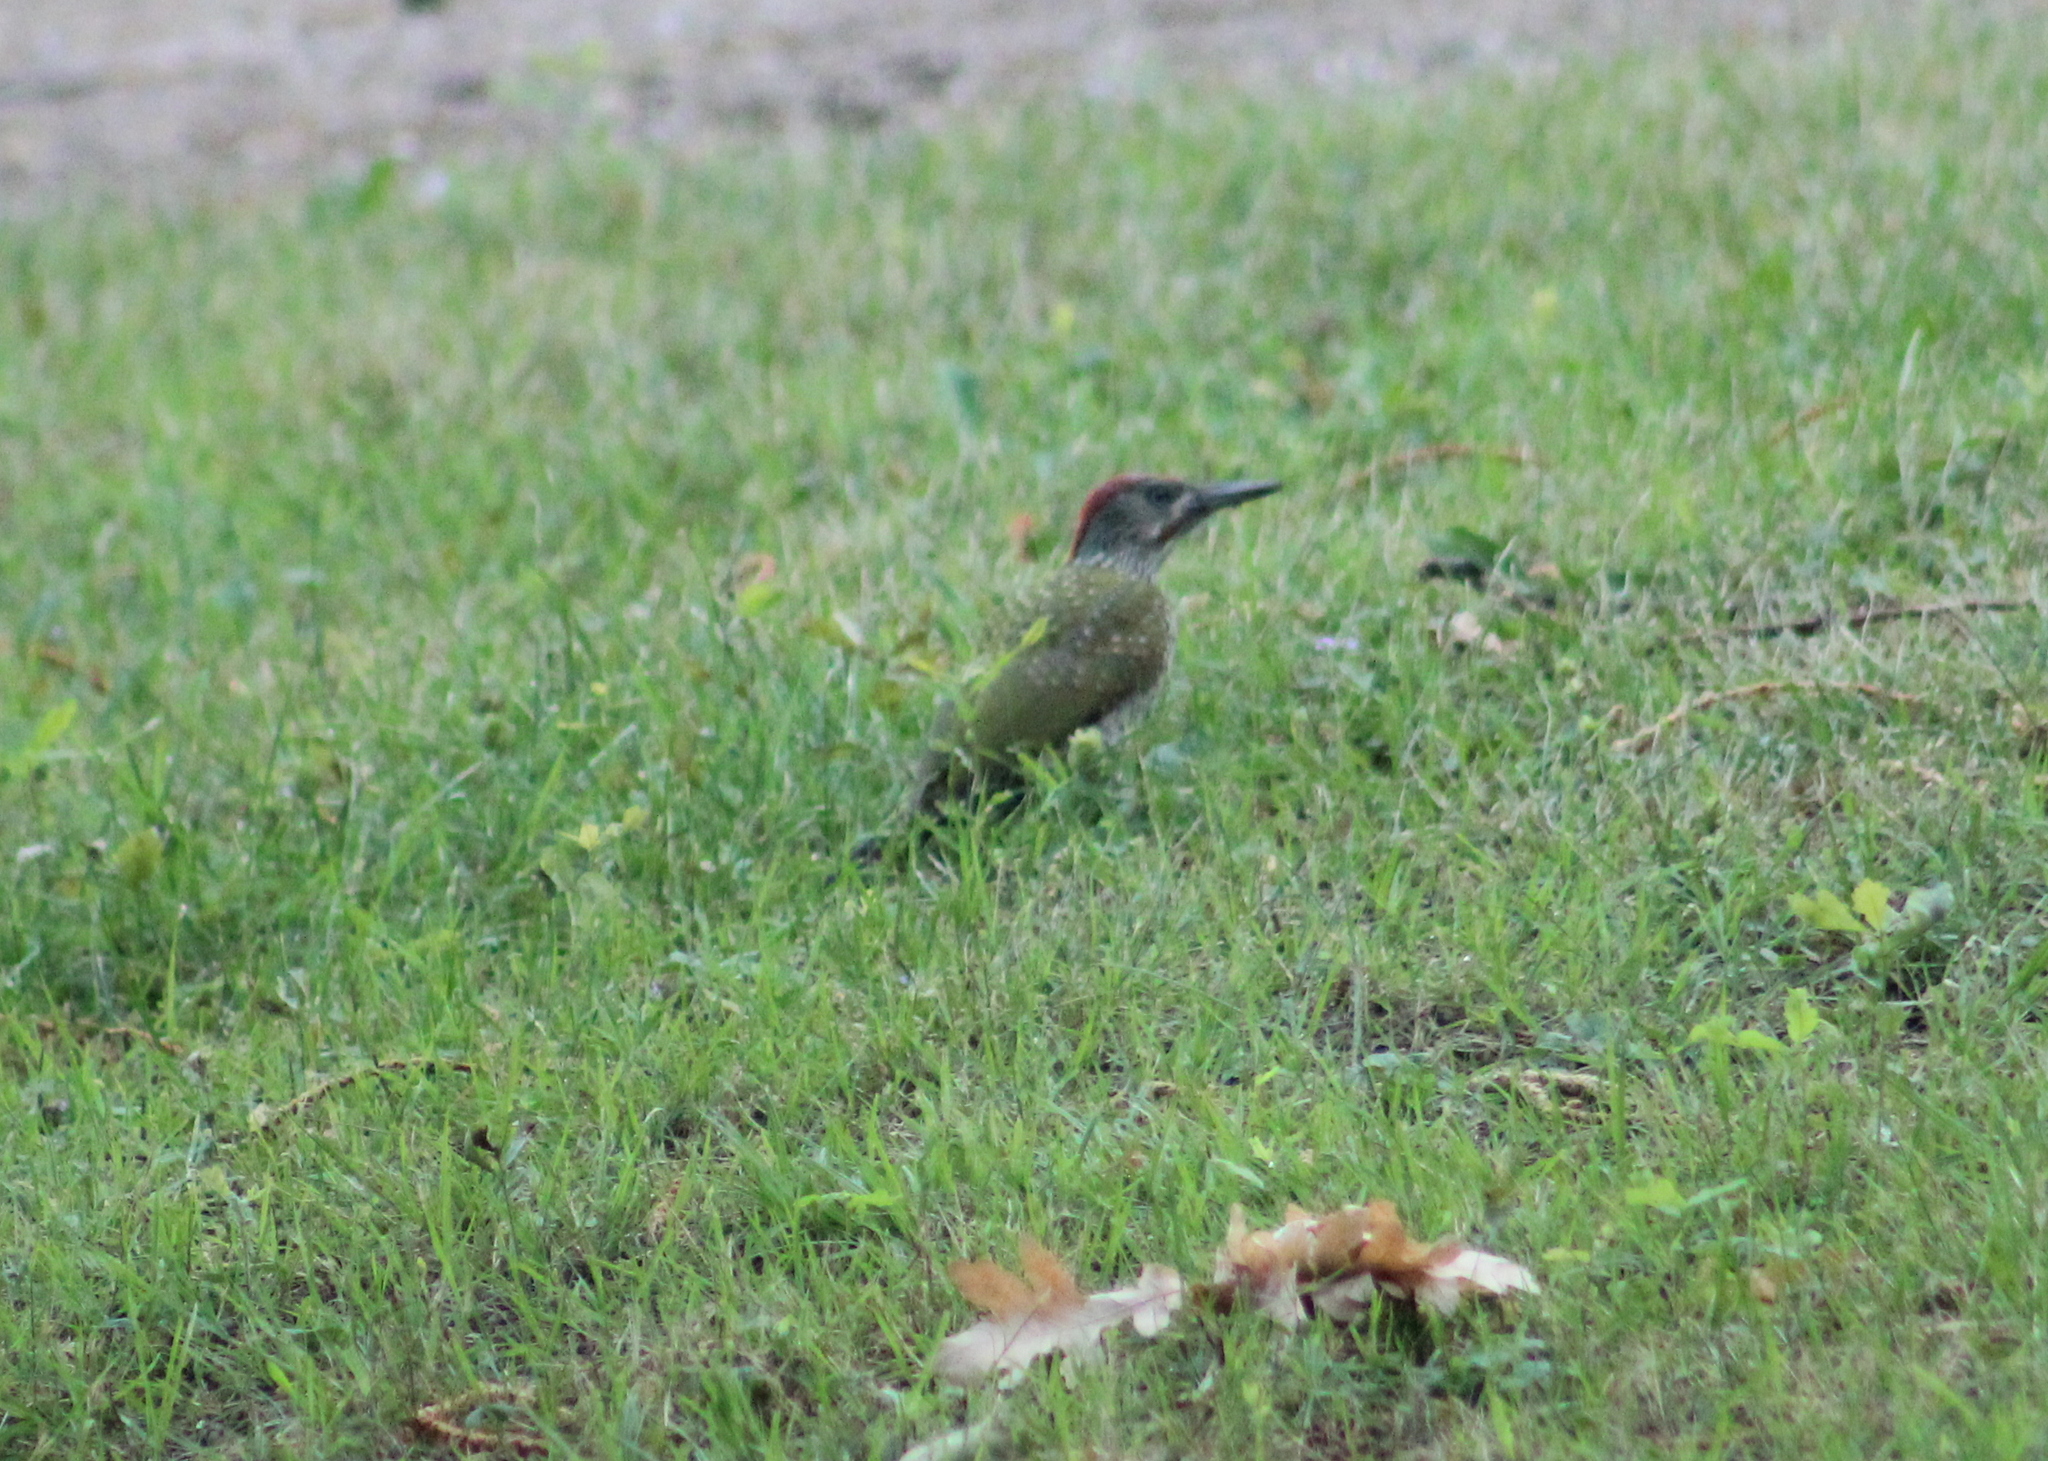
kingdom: Animalia
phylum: Chordata
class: Aves
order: Piciformes
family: Picidae
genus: Picus
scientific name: Picus viridis
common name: European green woodpecker
